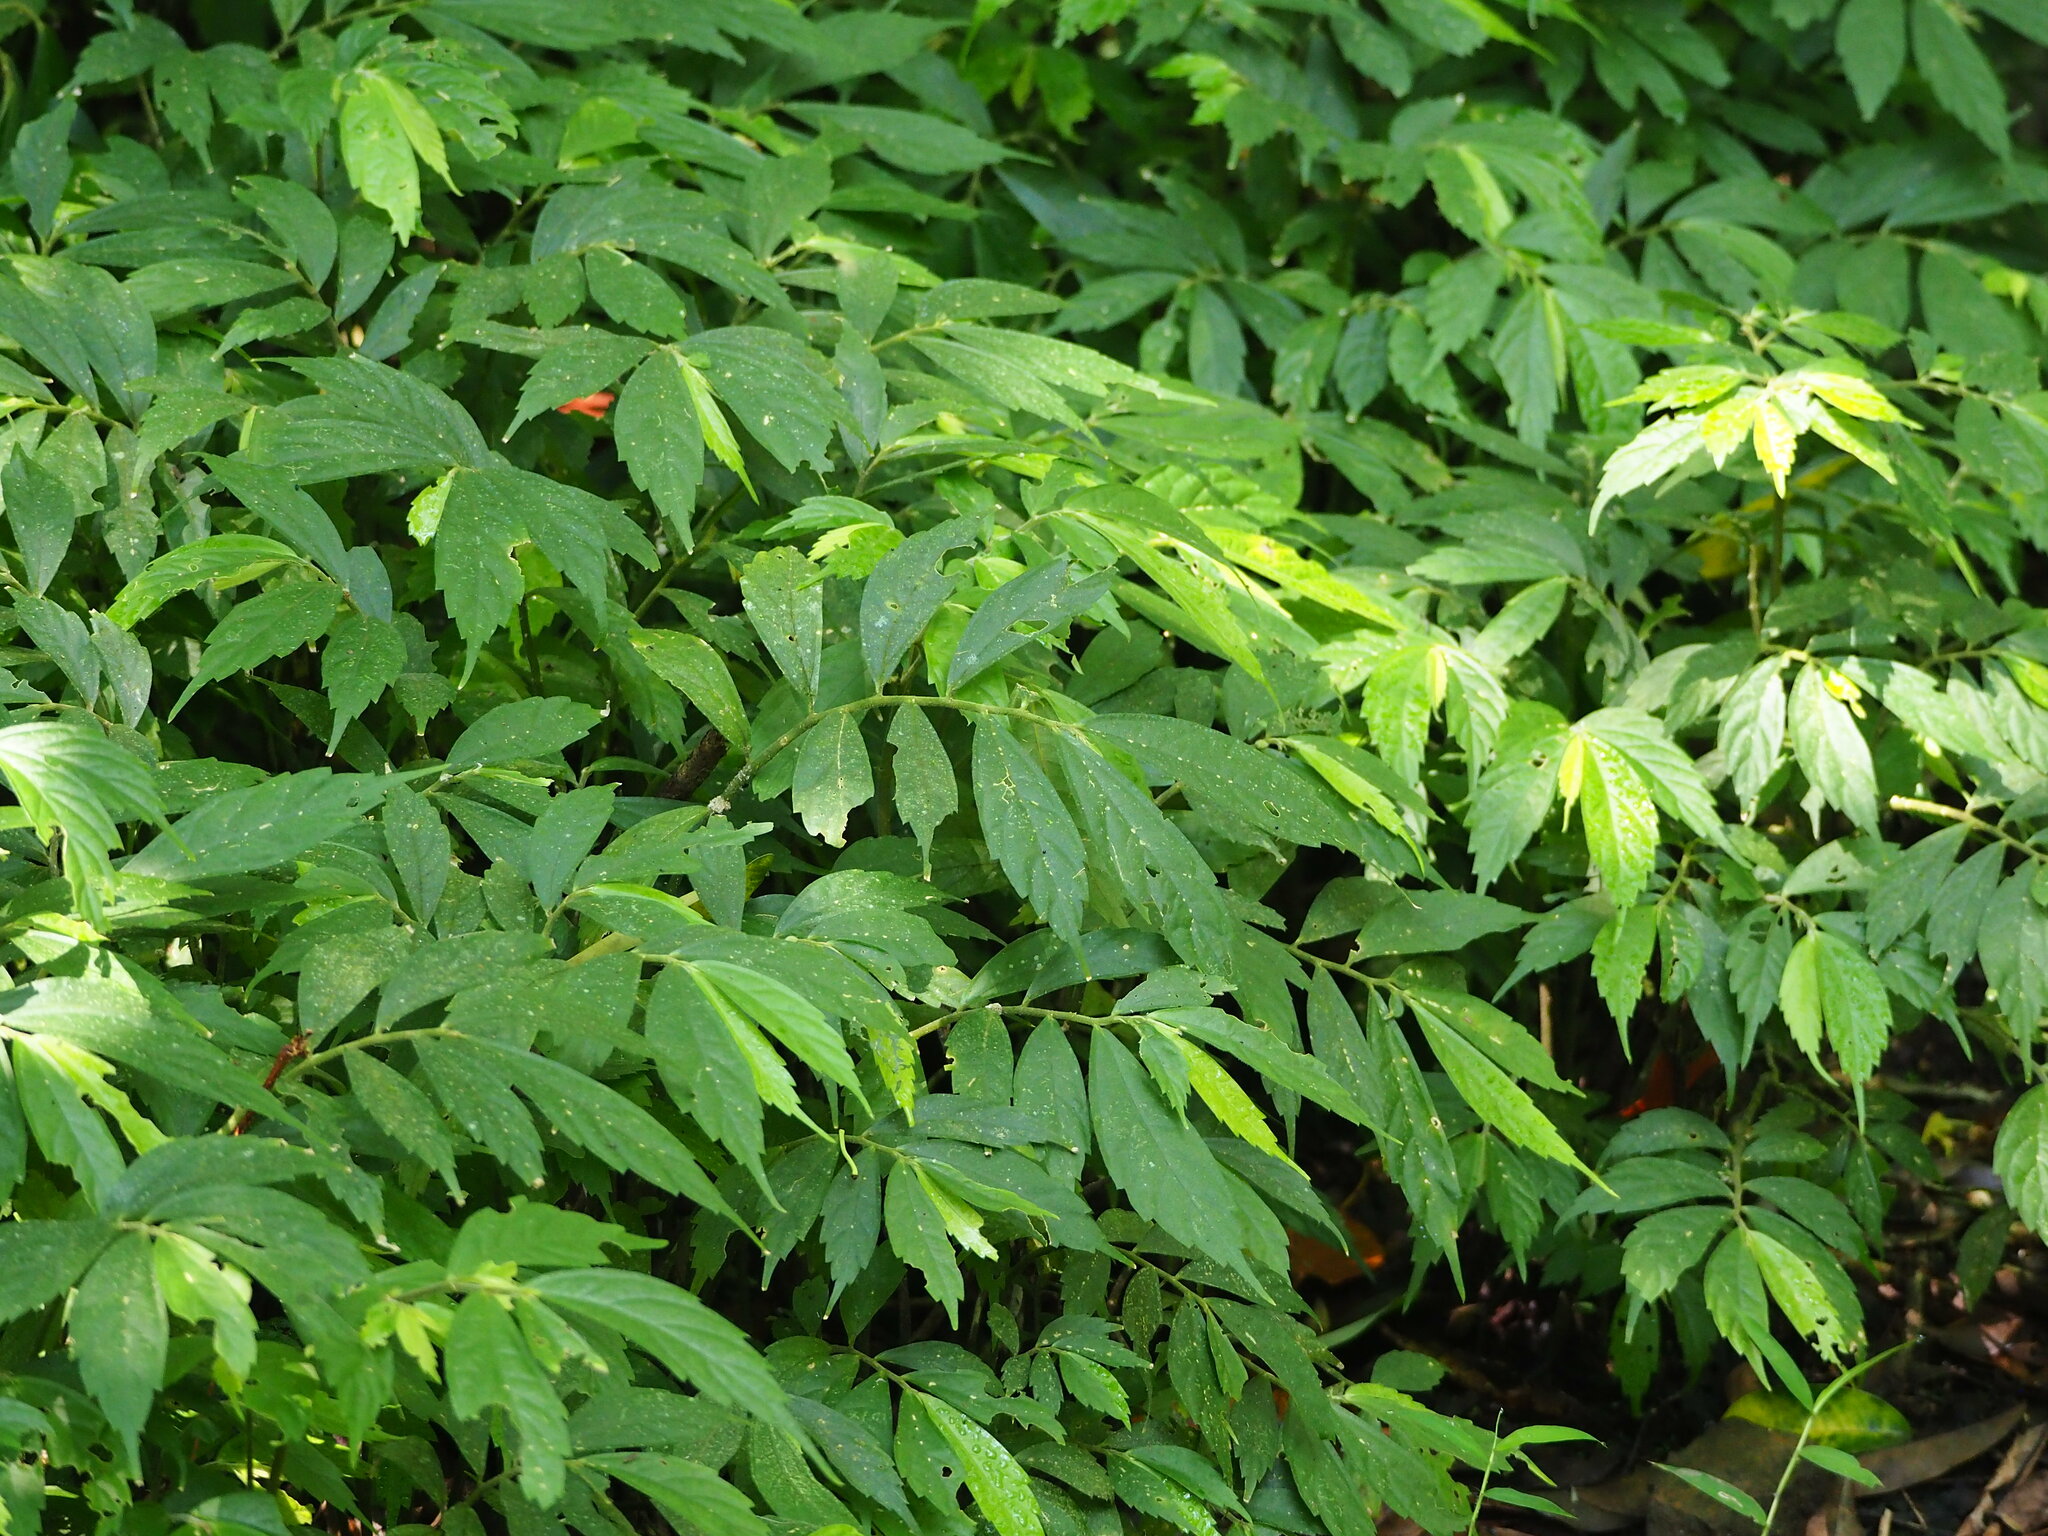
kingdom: Plantae
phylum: Tracheophyta
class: Magnoliopsida
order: Rosales
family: Urticaceae
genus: Elatostema
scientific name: Elatostema lineolatum
